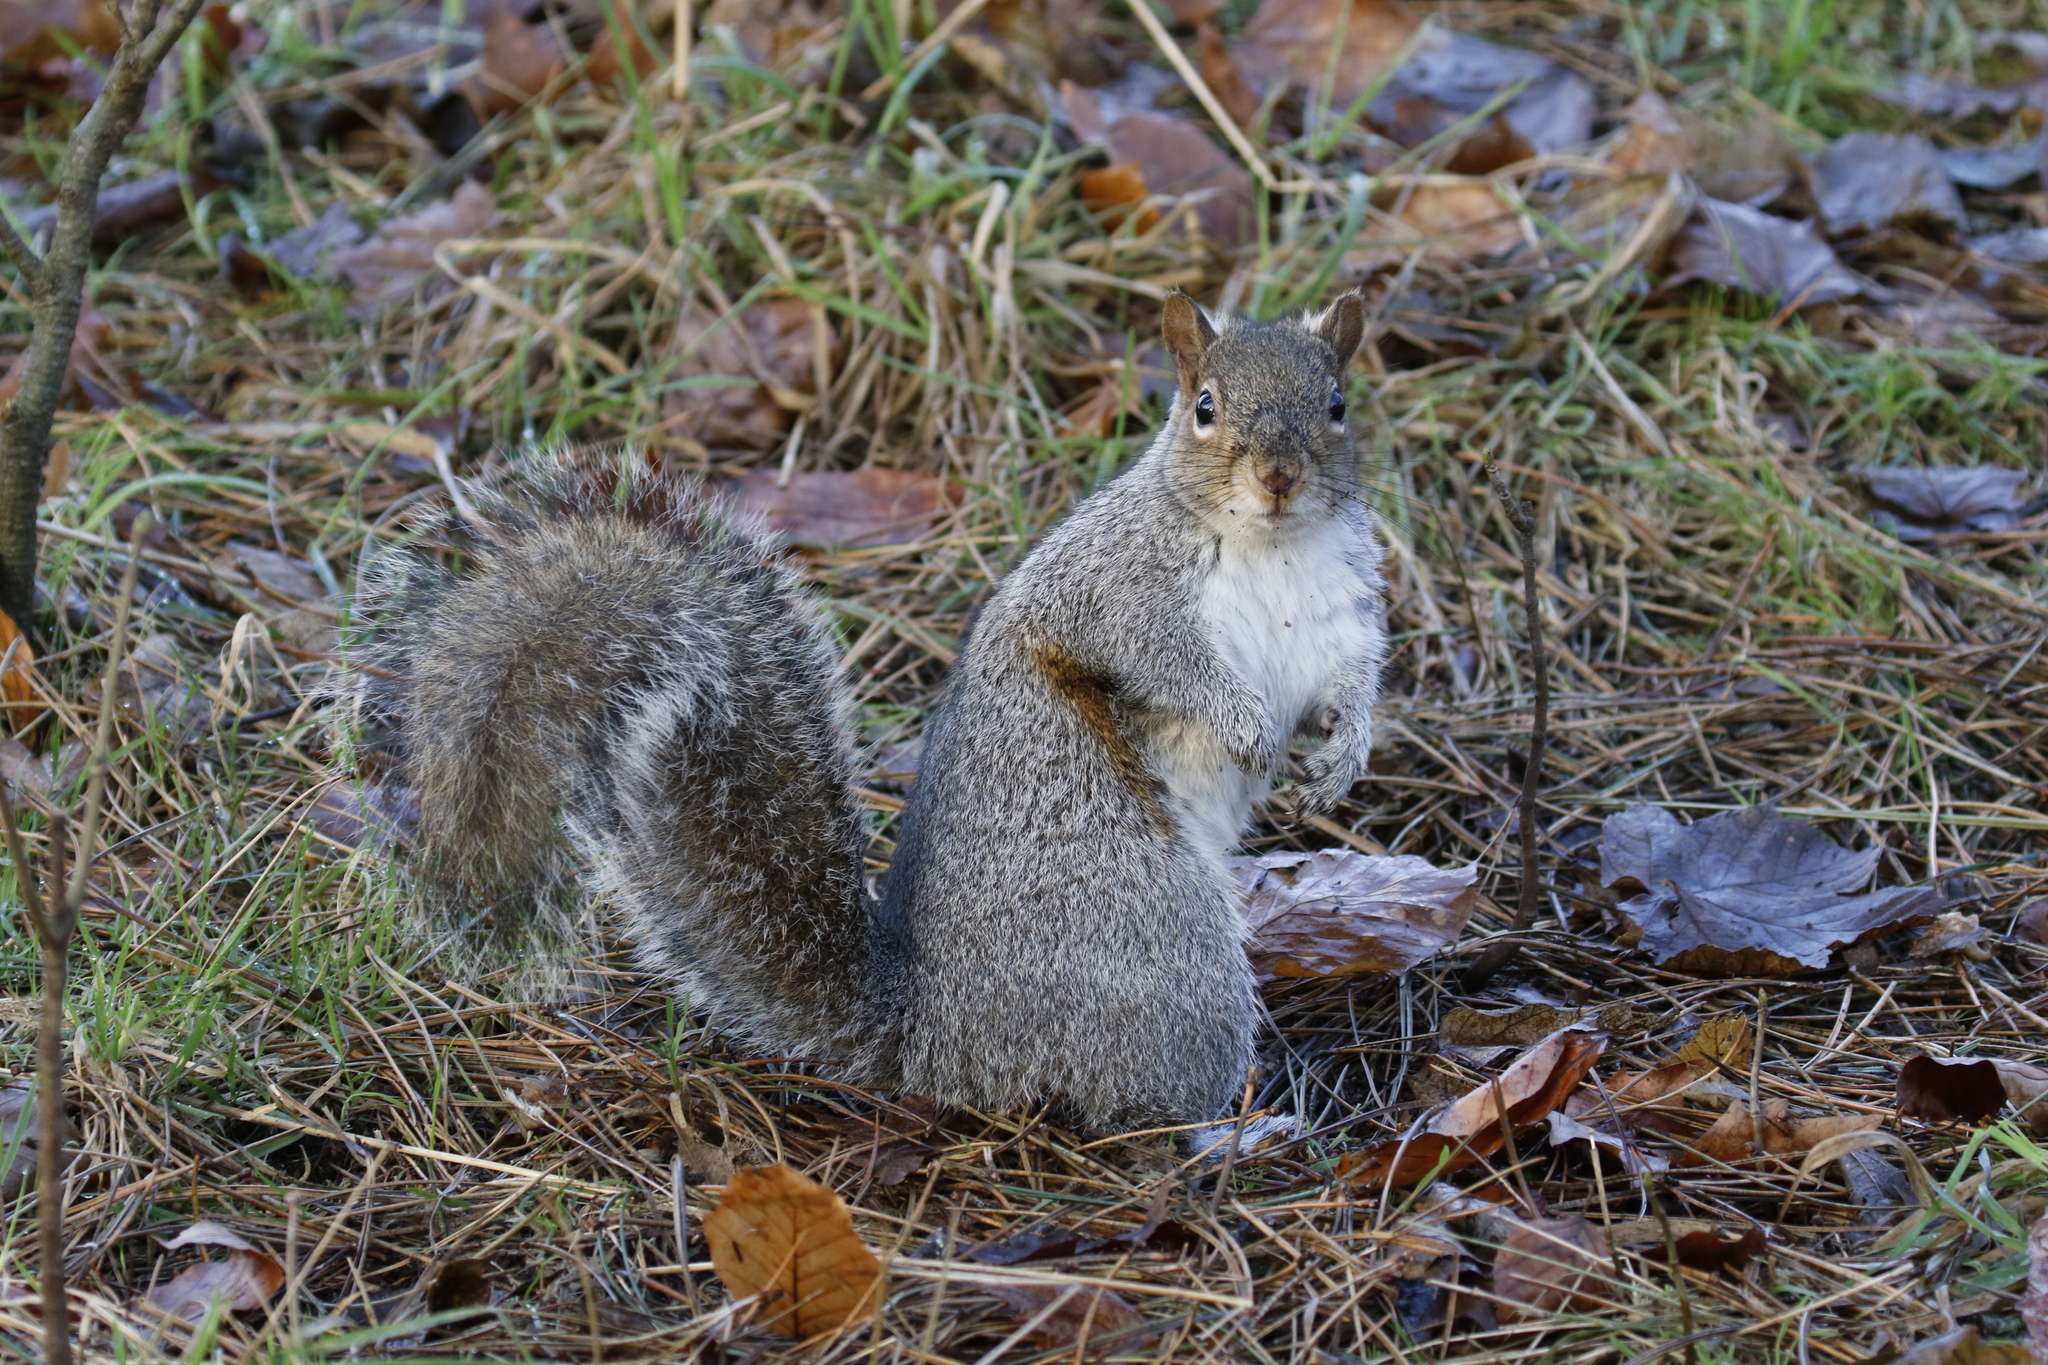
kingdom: Animalia
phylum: Chordata
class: Mammalia
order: Rodentia
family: Sciuridae
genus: Sciurus
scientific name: Sciurus carolinensis
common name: Eastern gray squirrel
